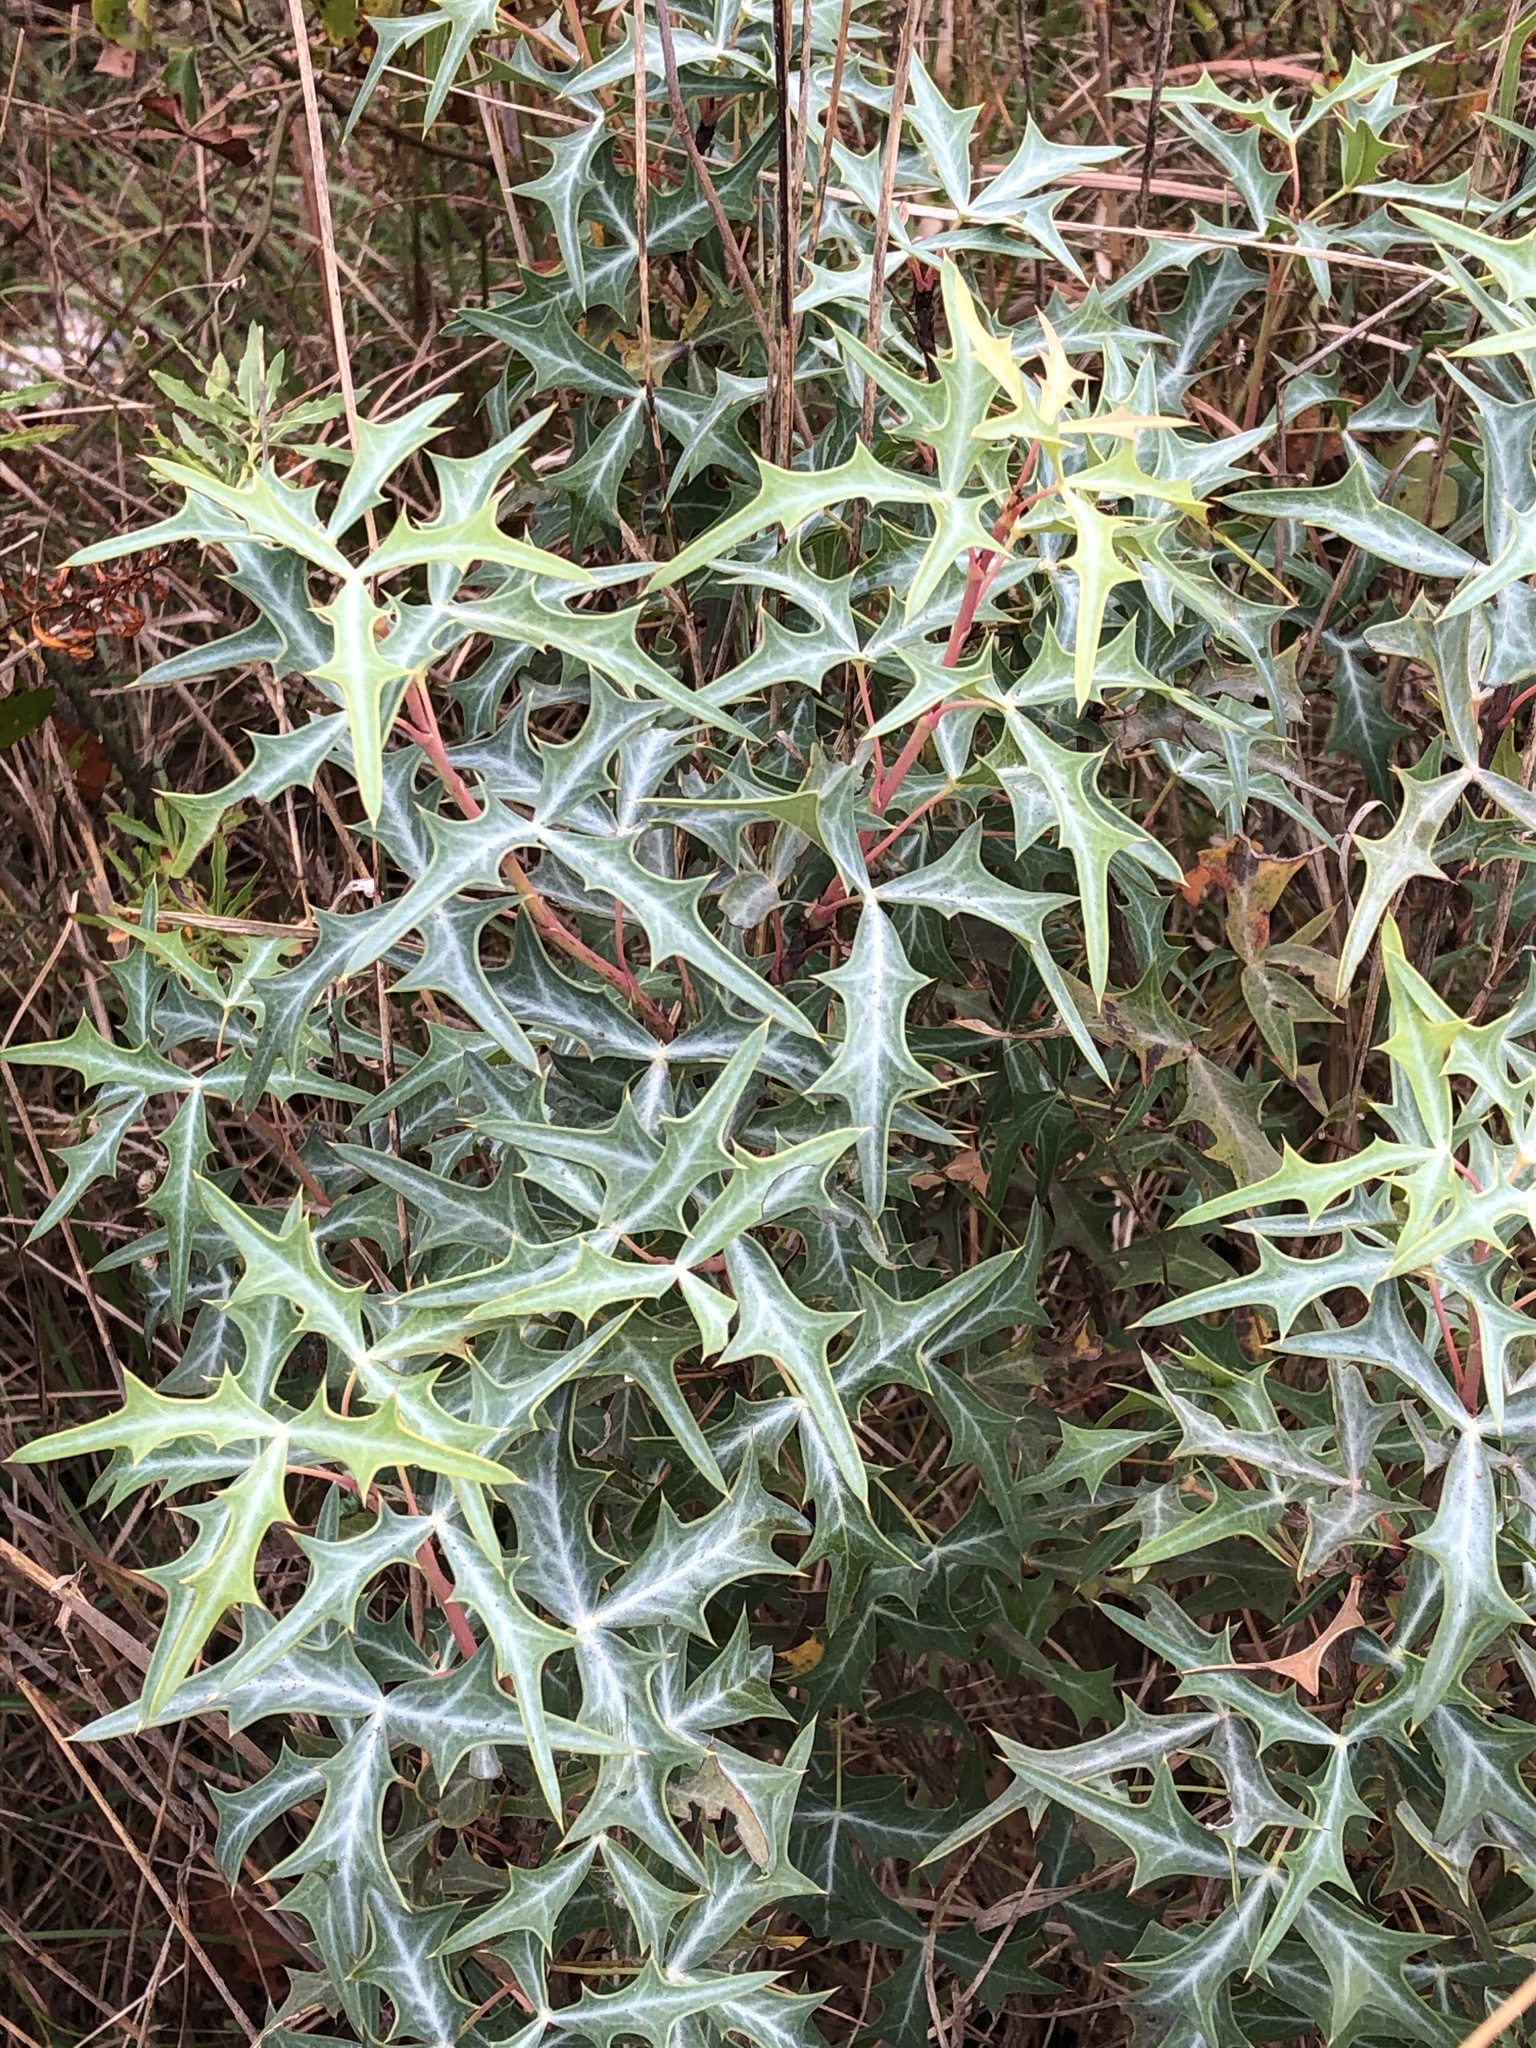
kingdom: Plantae
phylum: Tracheophyta
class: Magnoliopsida
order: Ranunculales
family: Berberidaceae
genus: Alloberberis
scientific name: Alloberberis trifoliolata
